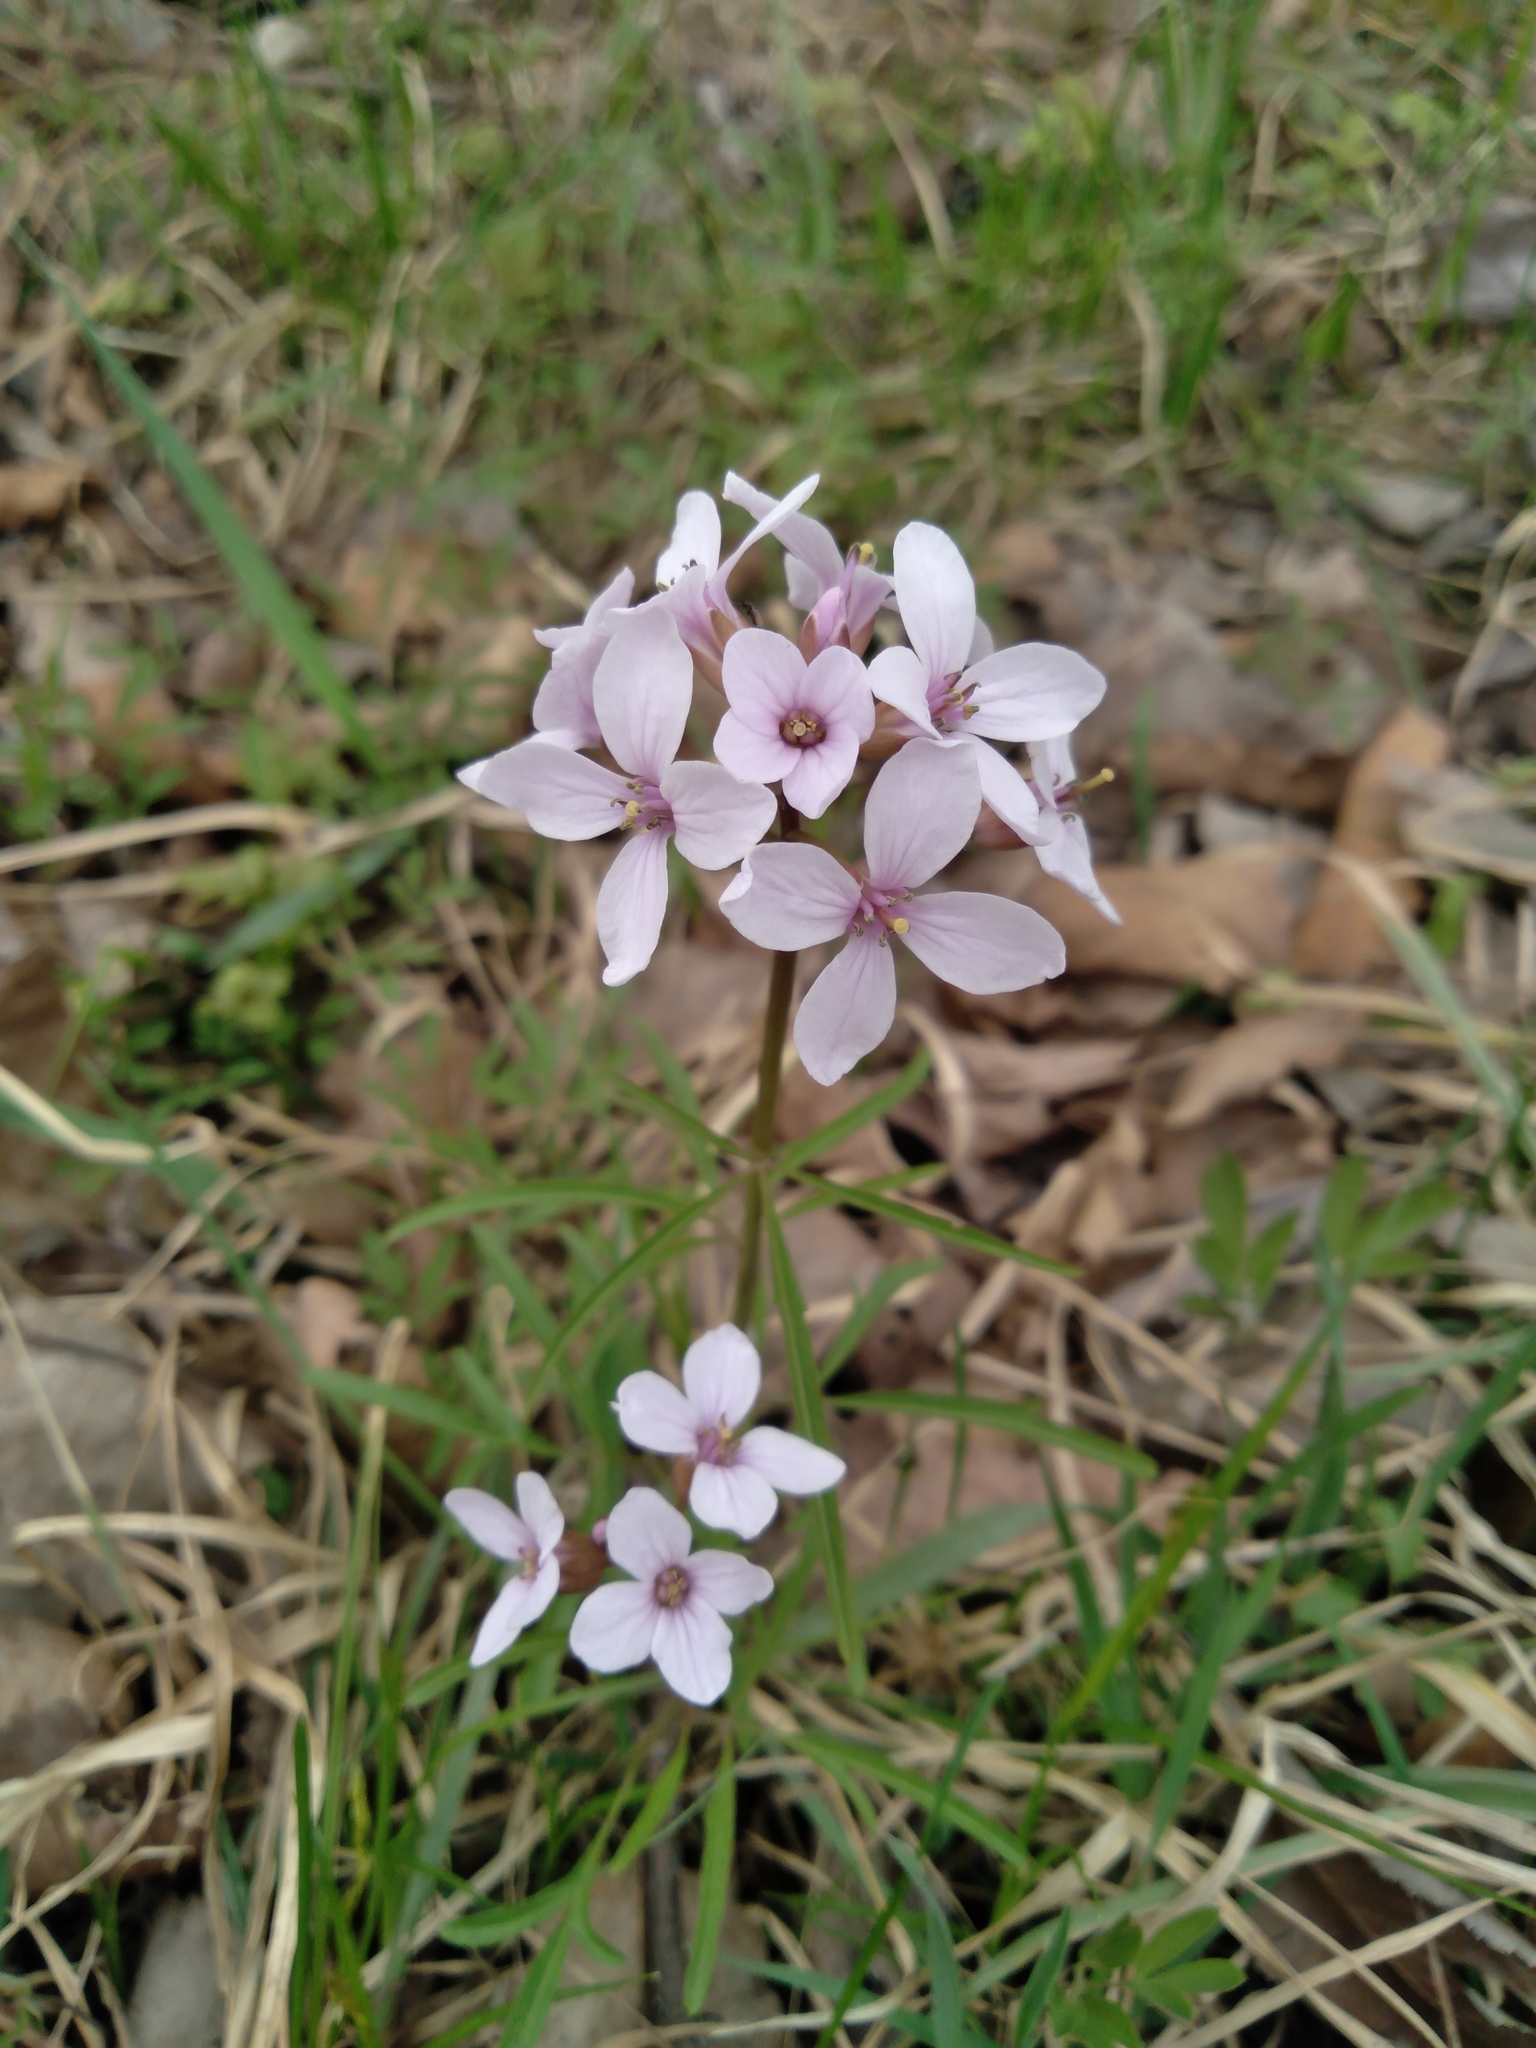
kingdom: Plantae
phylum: Tracheophyta
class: Magnoliopsida
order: Brassicales
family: Brassicaceae
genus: Cardamine
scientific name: Cardamine trifida
